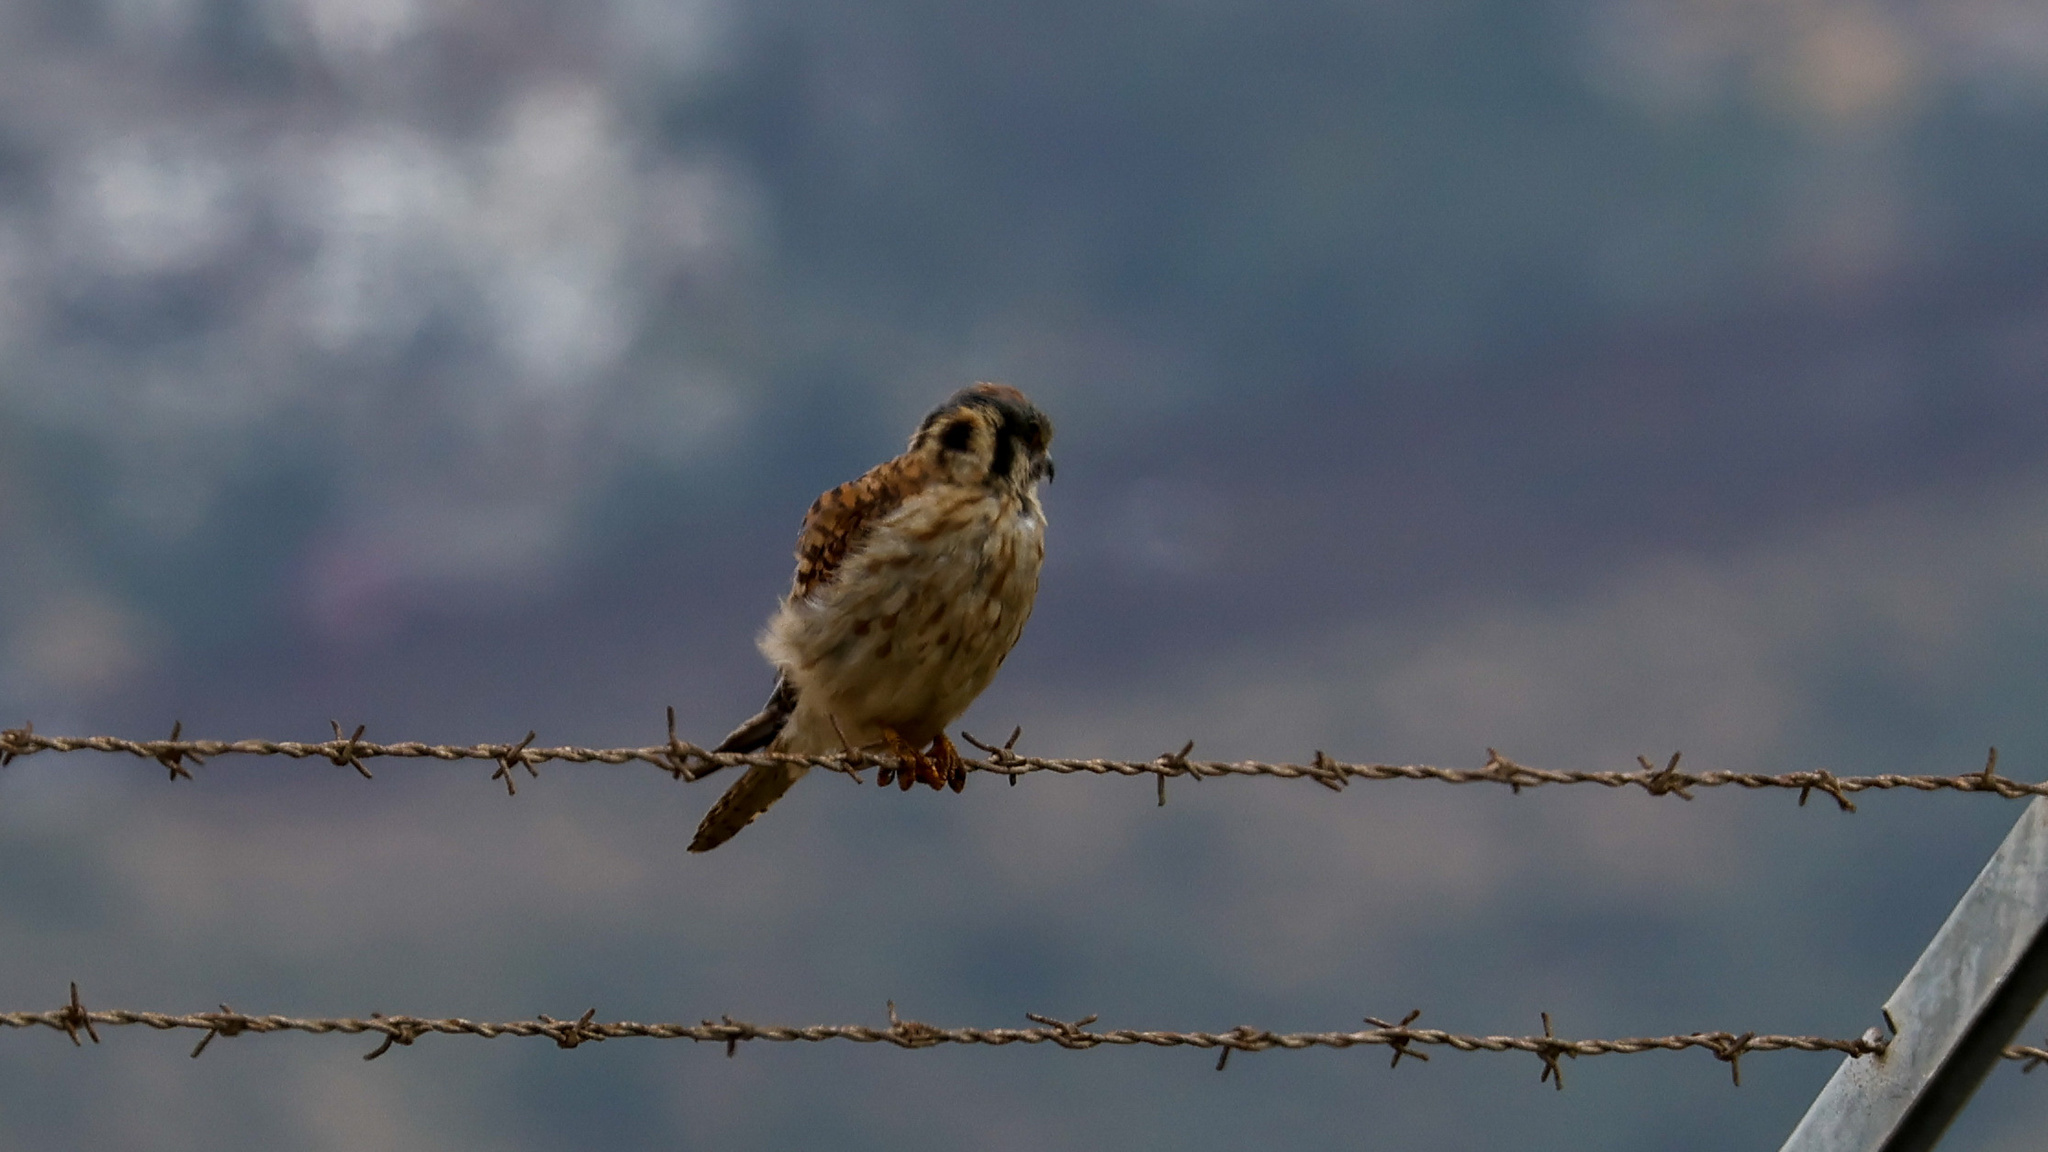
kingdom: Animalia
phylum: Chordata
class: Aves
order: Falconiformes
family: Falconidae
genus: Falco
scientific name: Falco sparverius
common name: American kestrel
